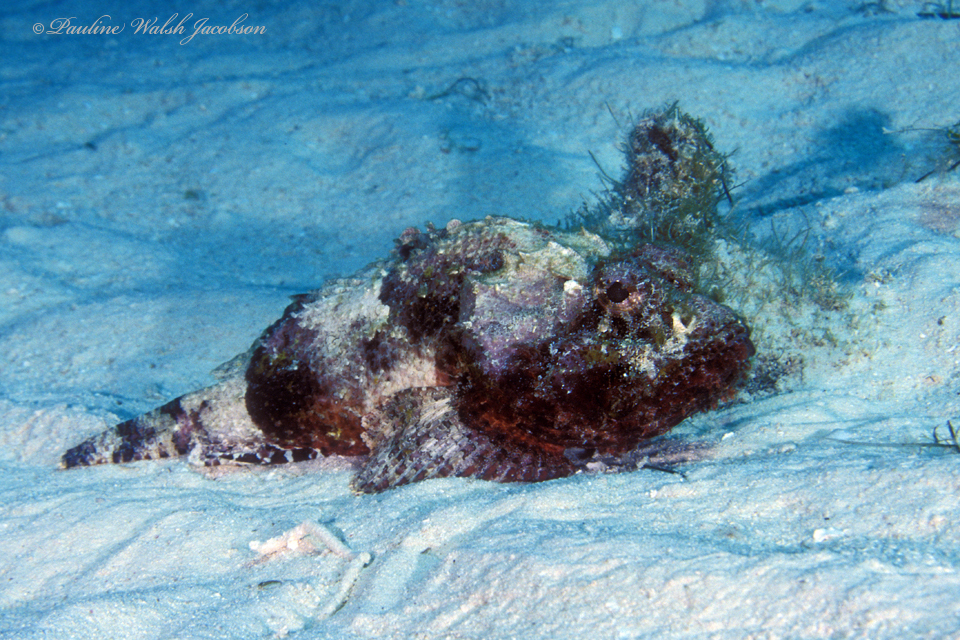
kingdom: Animalia
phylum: Chordata
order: Scorpaeniformes
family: Scorpaenidae
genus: Scorpaena
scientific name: Scorpaena brasiliensis
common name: Barbfish
